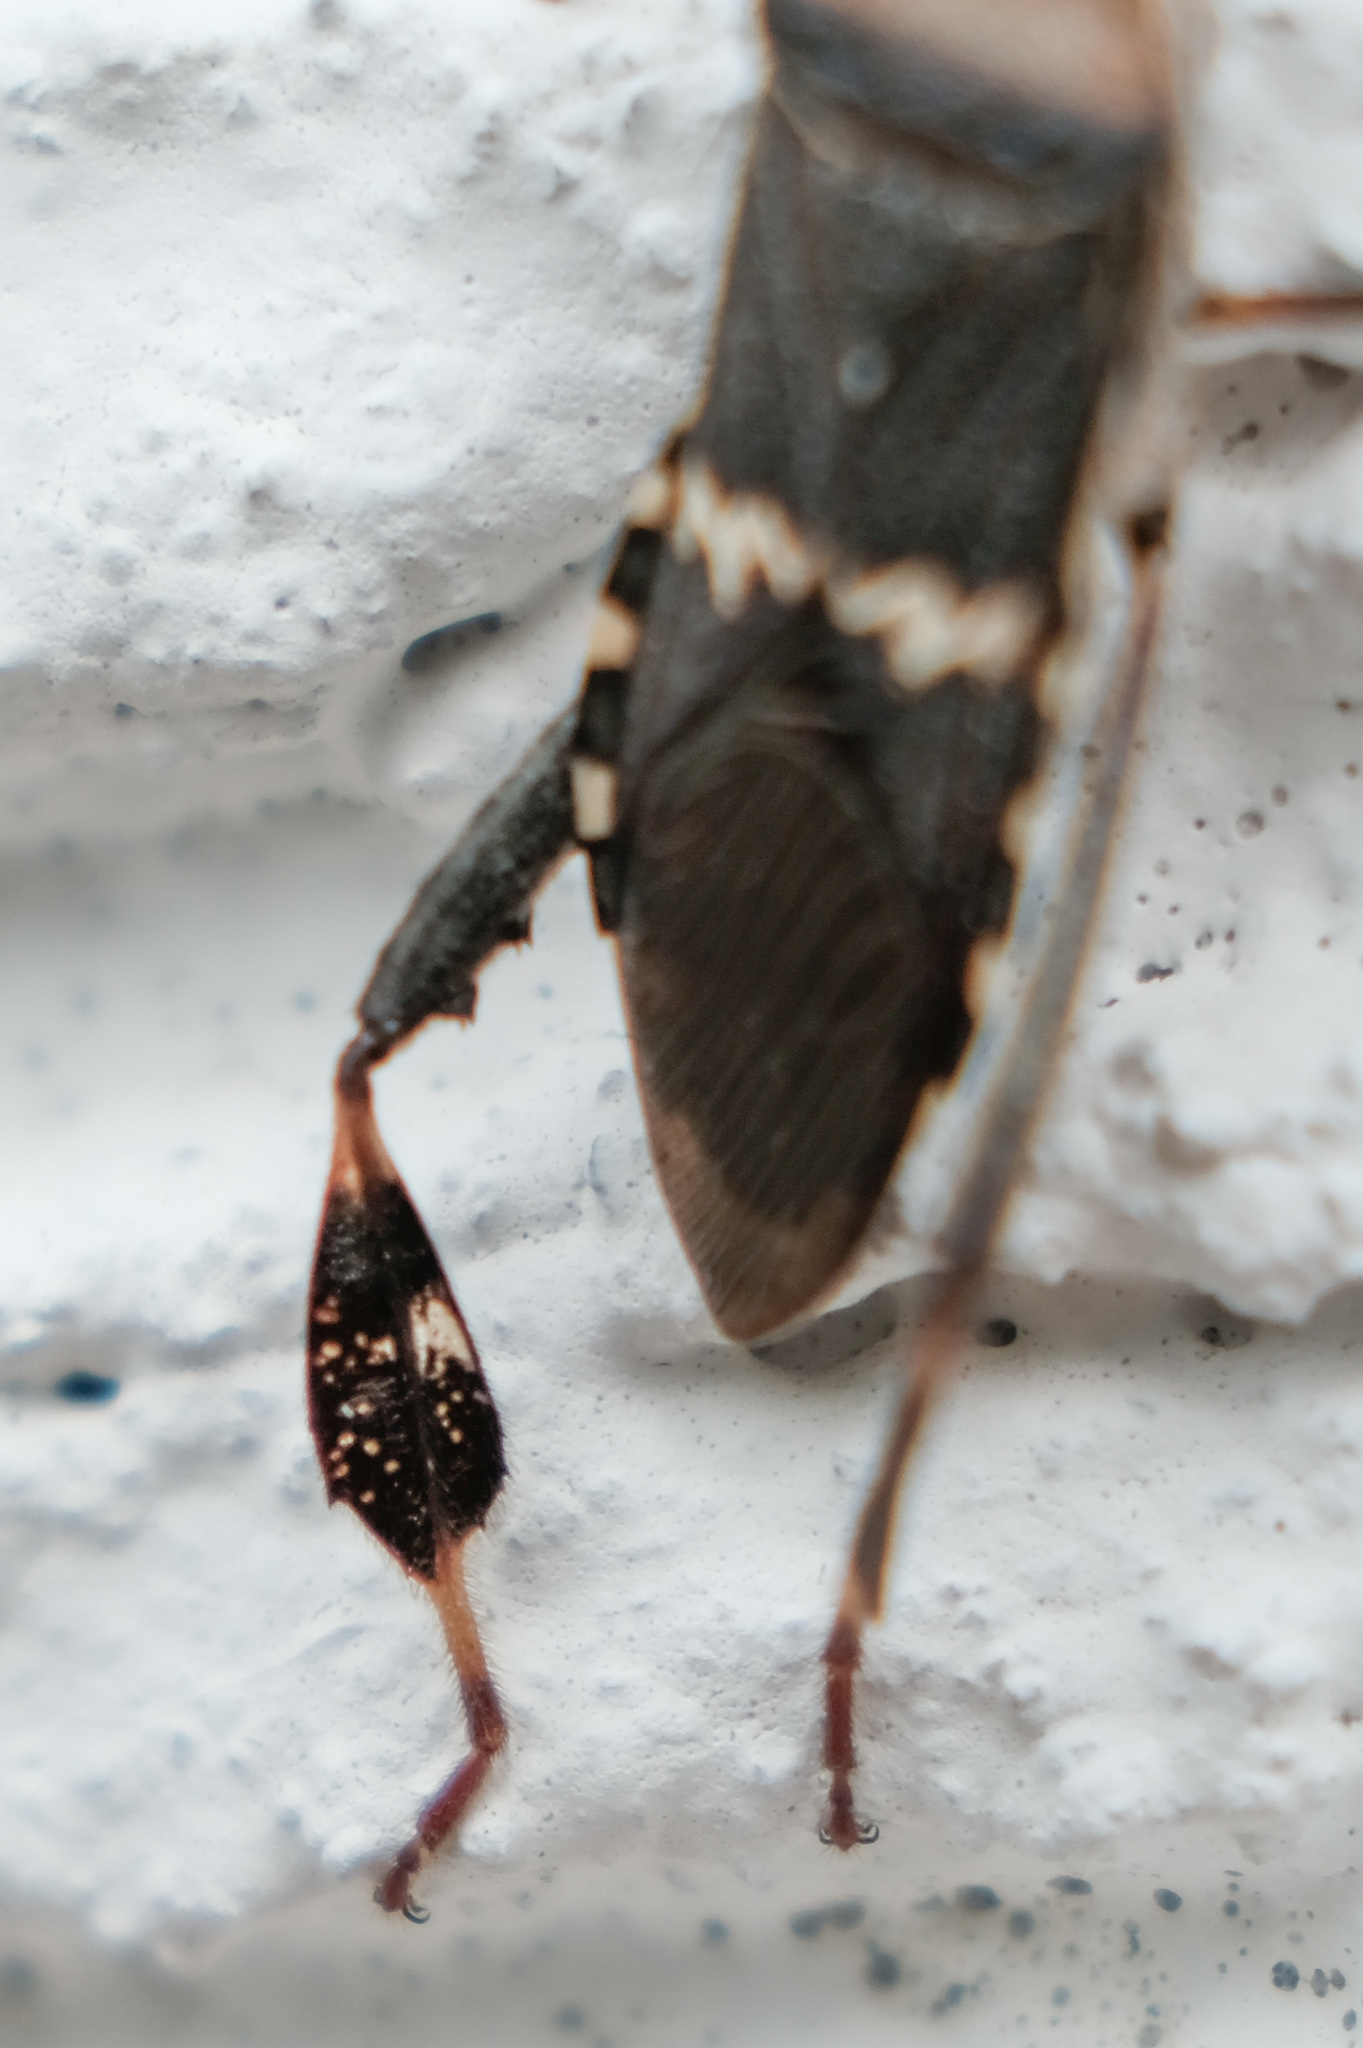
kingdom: Animalia
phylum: Arthropoda
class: Insecta
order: Hemiptera
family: Coreidae
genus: Leptoglossus
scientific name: Leptoglossus clypealis
